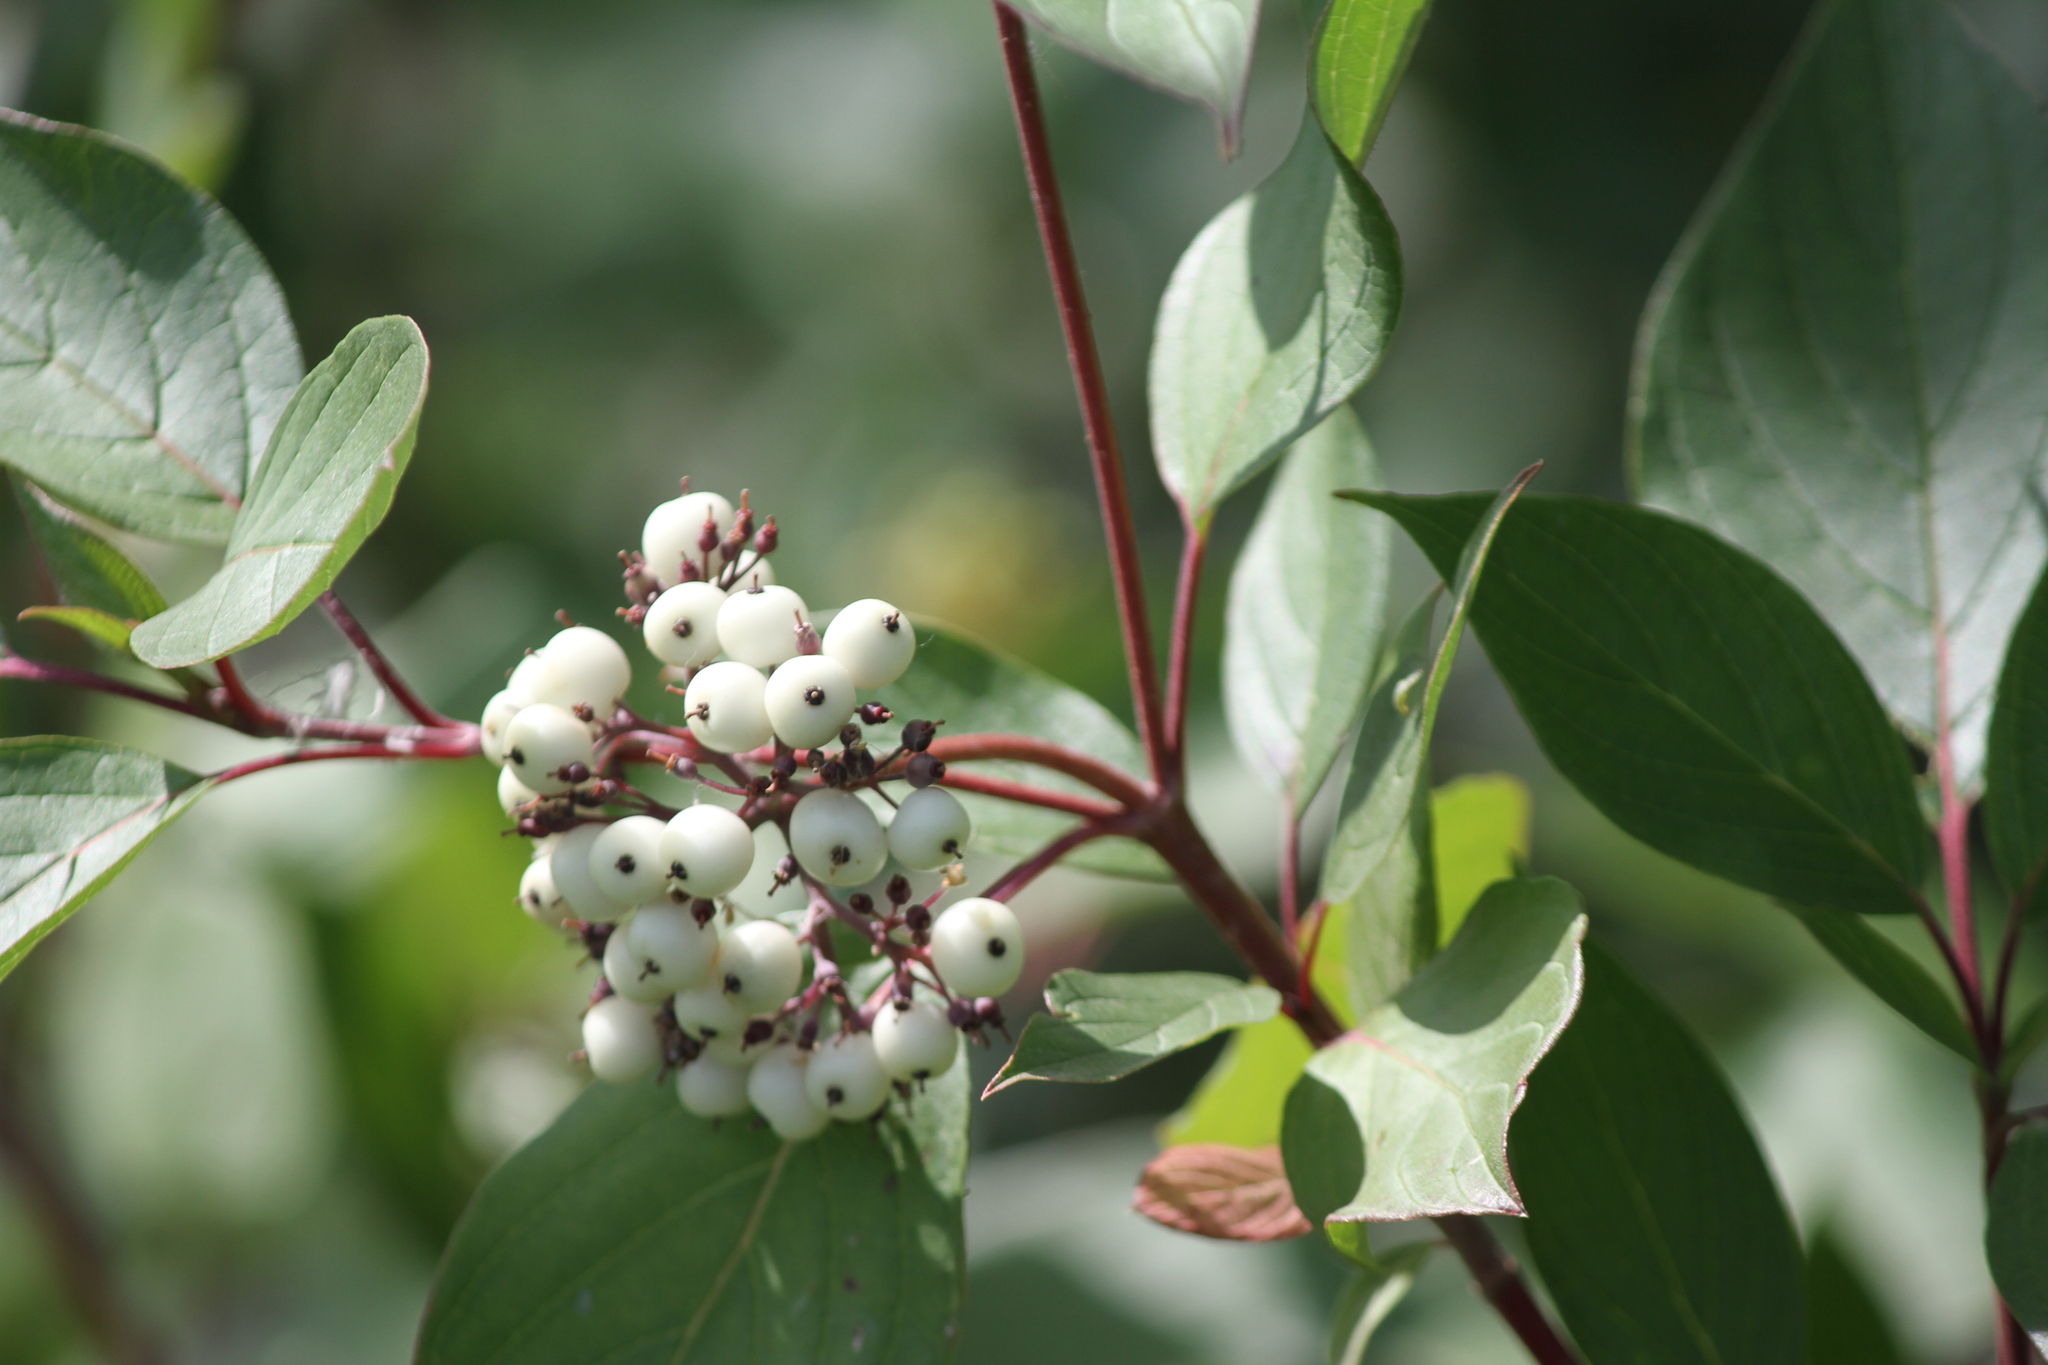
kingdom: Plantae
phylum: Tracheophyta
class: Magnoliopsida
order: Cornales
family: Cornaceae
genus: Cornus
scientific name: Cornus sericea
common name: Red-osier dogwood
